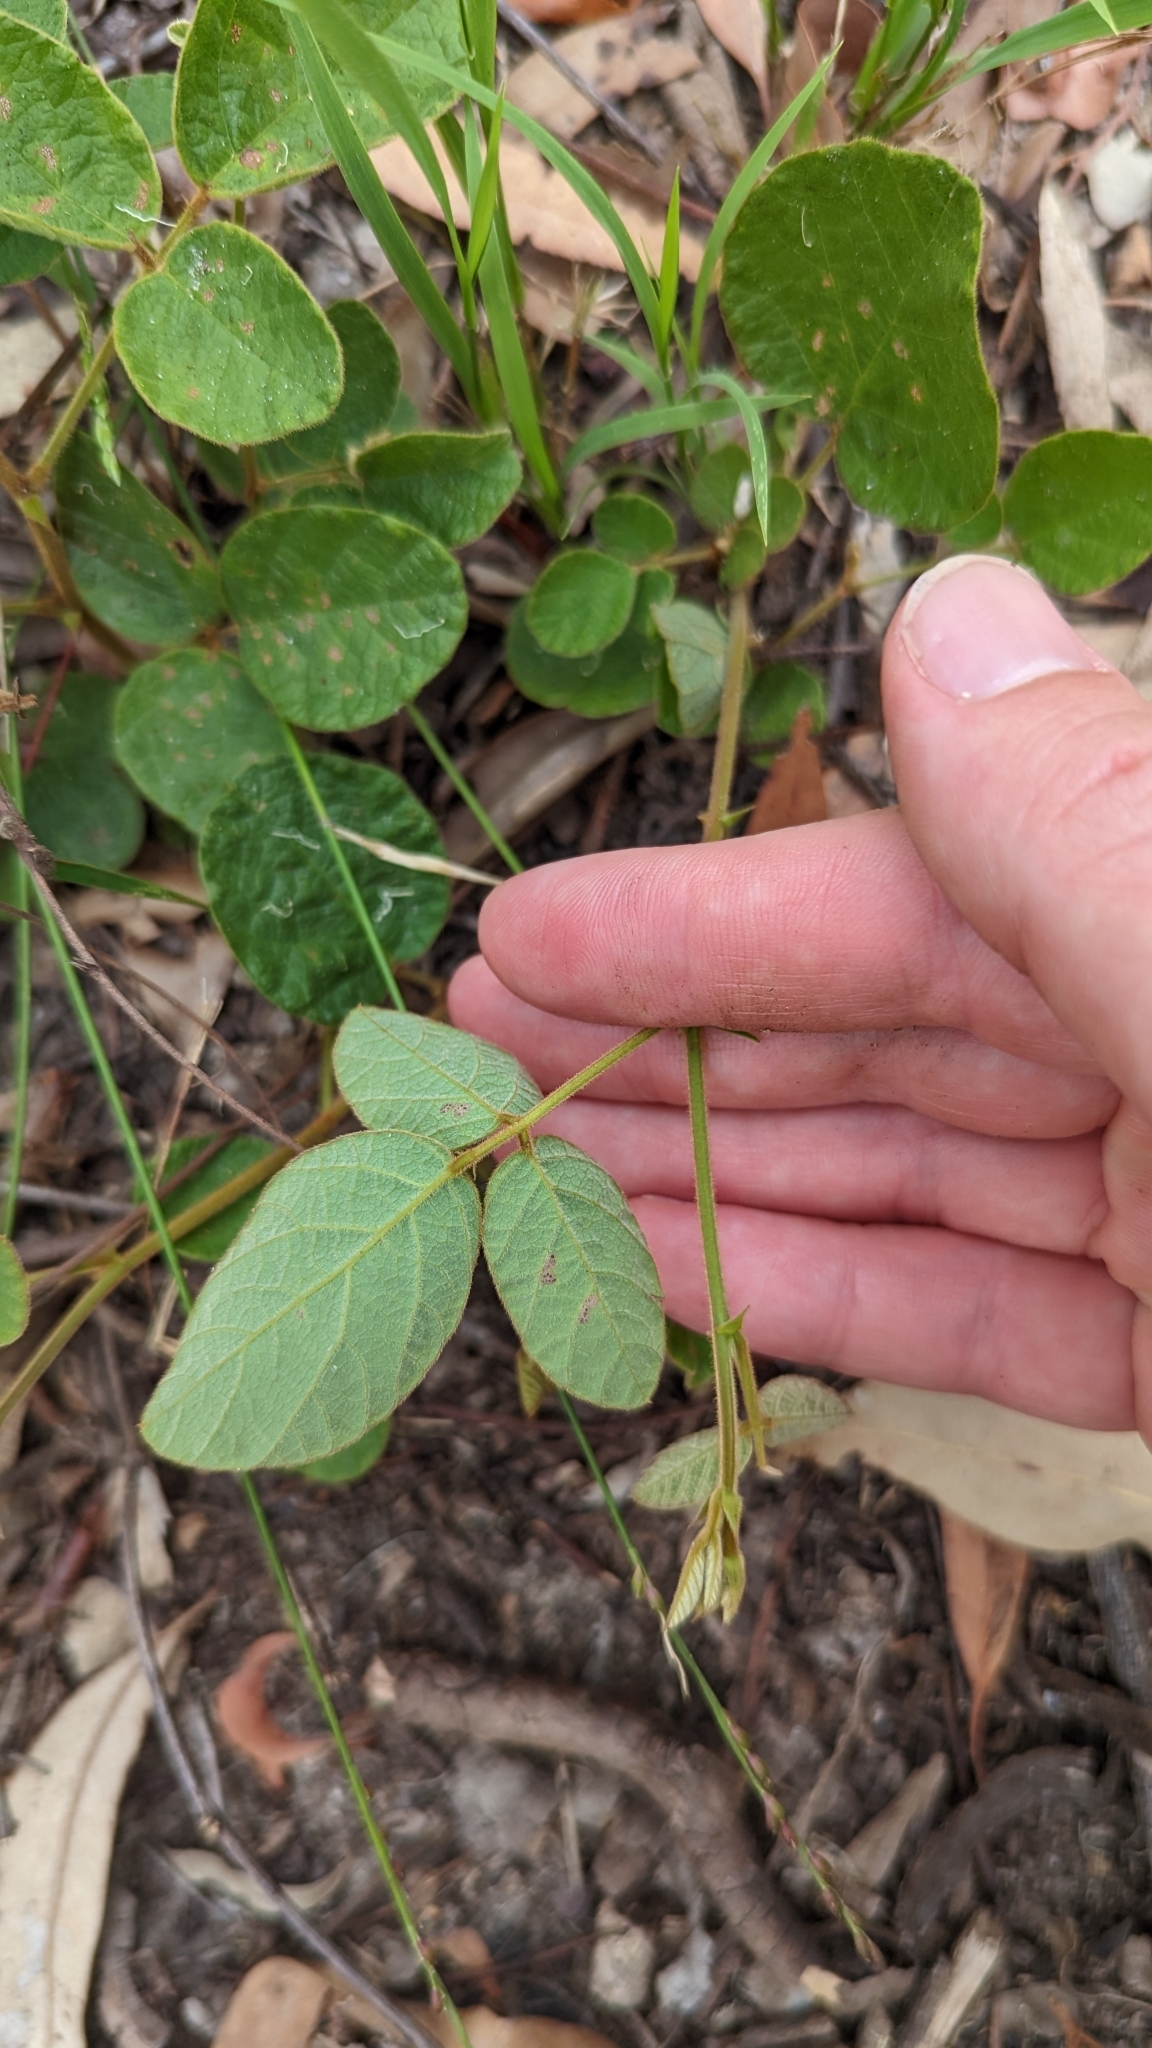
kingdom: Plantae
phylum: Tracheophyta
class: Magnoliopsida
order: Fabales
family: Fabaceae
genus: Maekawaea
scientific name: Maekawaea rhytidophylla
